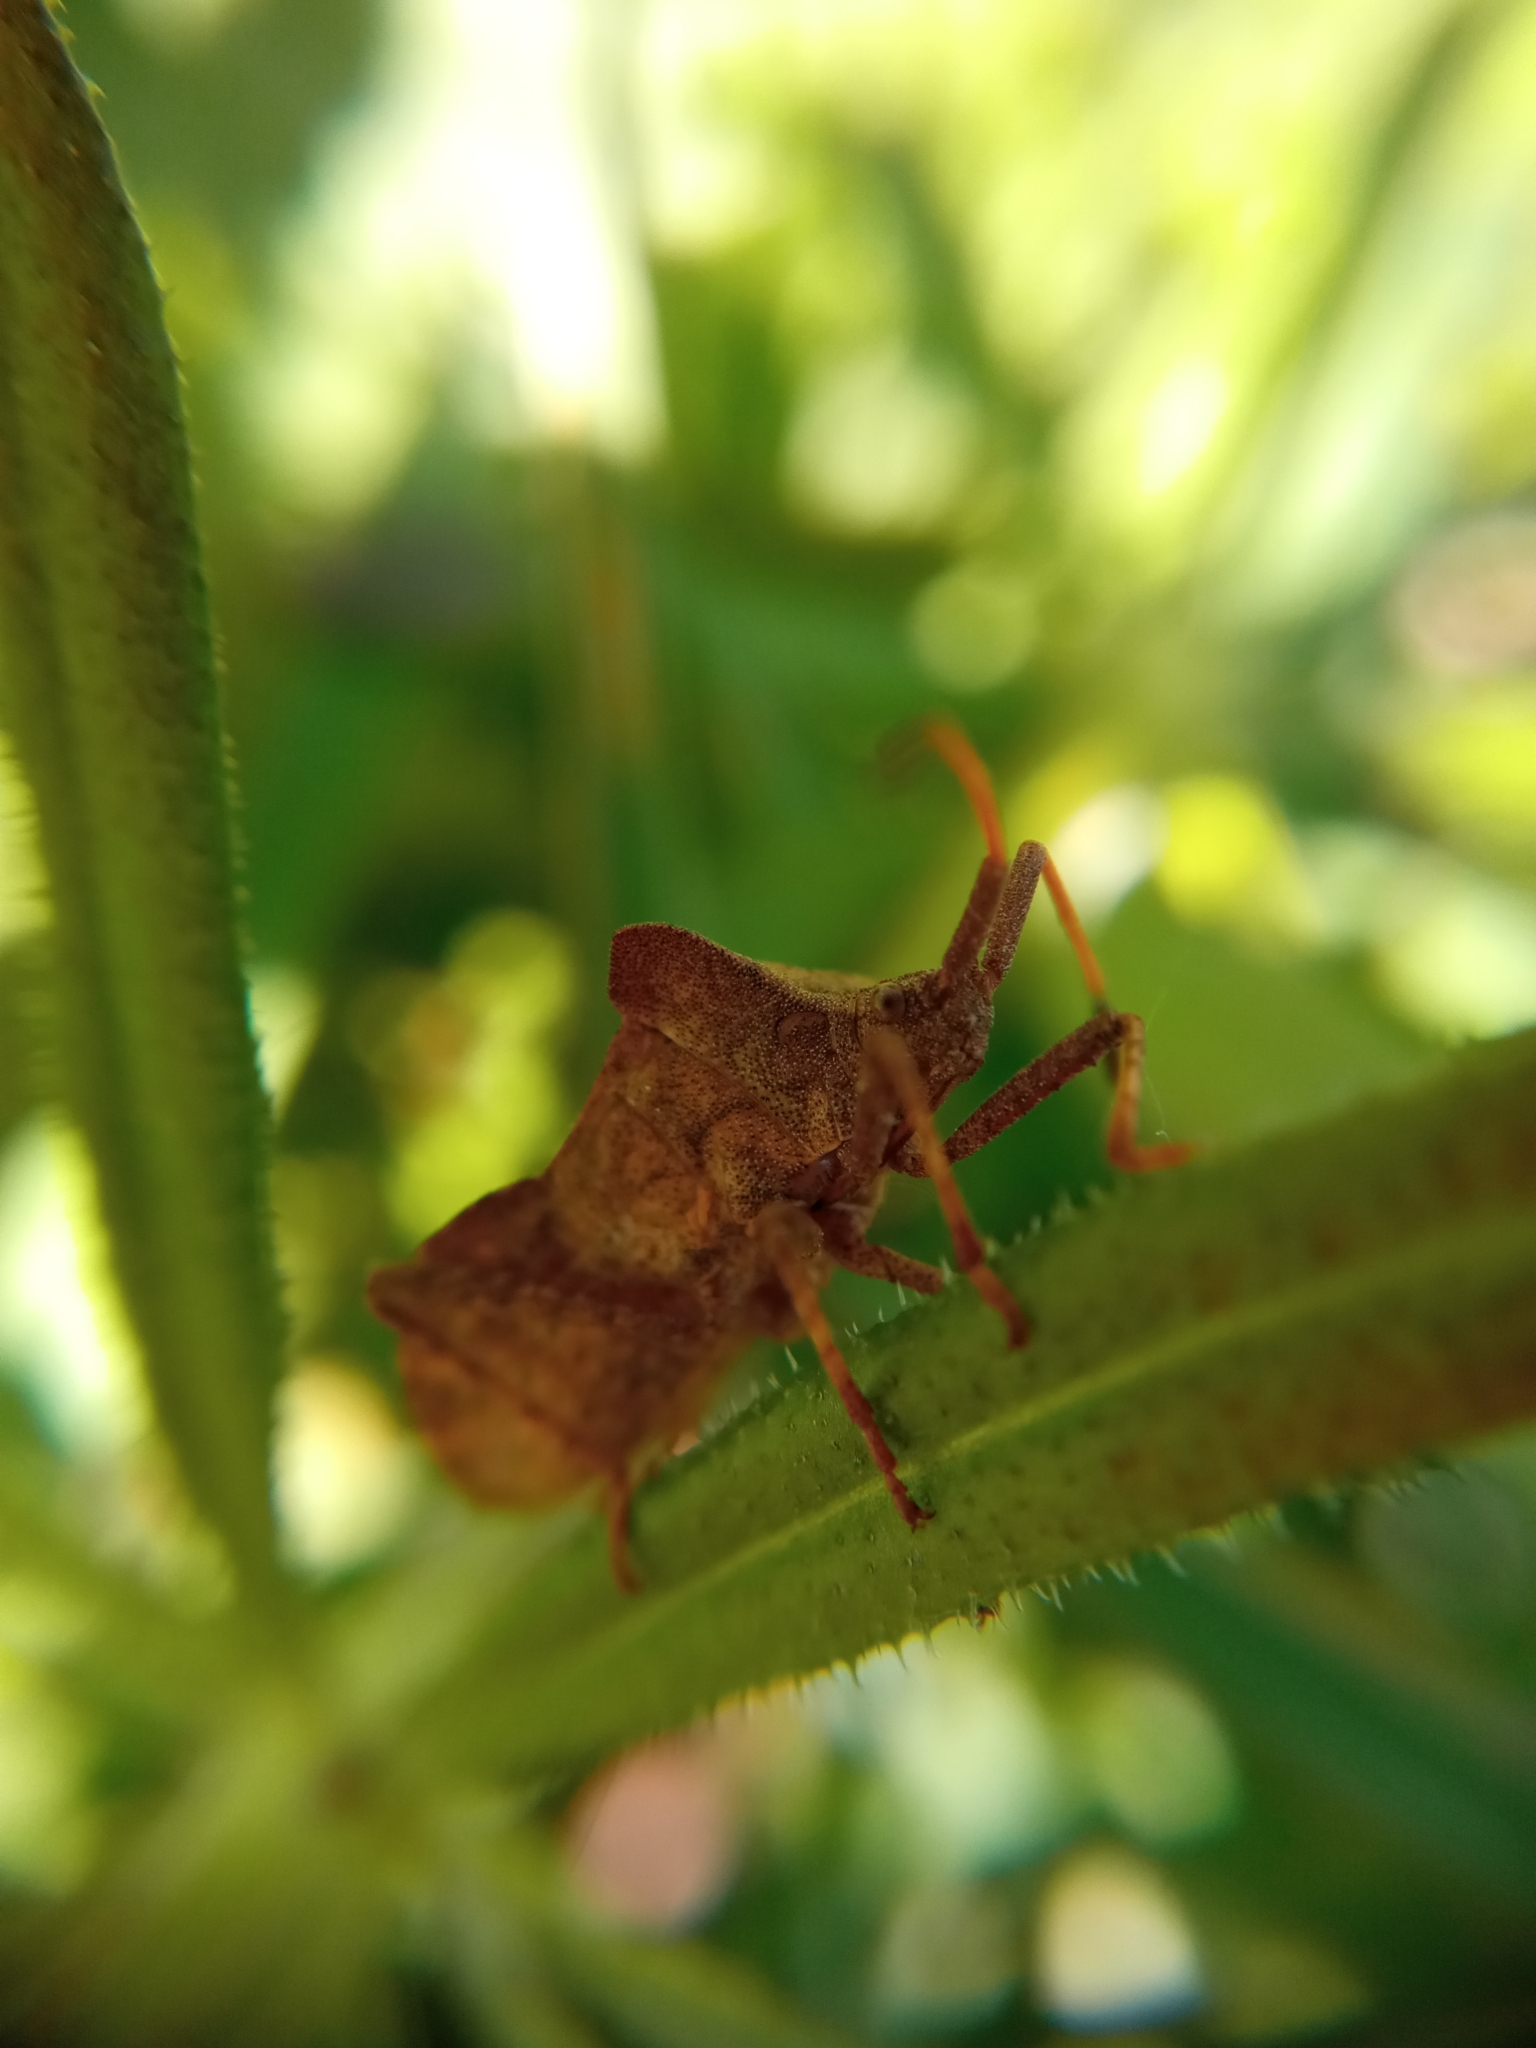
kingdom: Animalia
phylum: Arthropoda
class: Insecta
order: Hemiptera
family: Coreidae
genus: Coreus
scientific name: Coreus marginatus
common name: Dock bug
